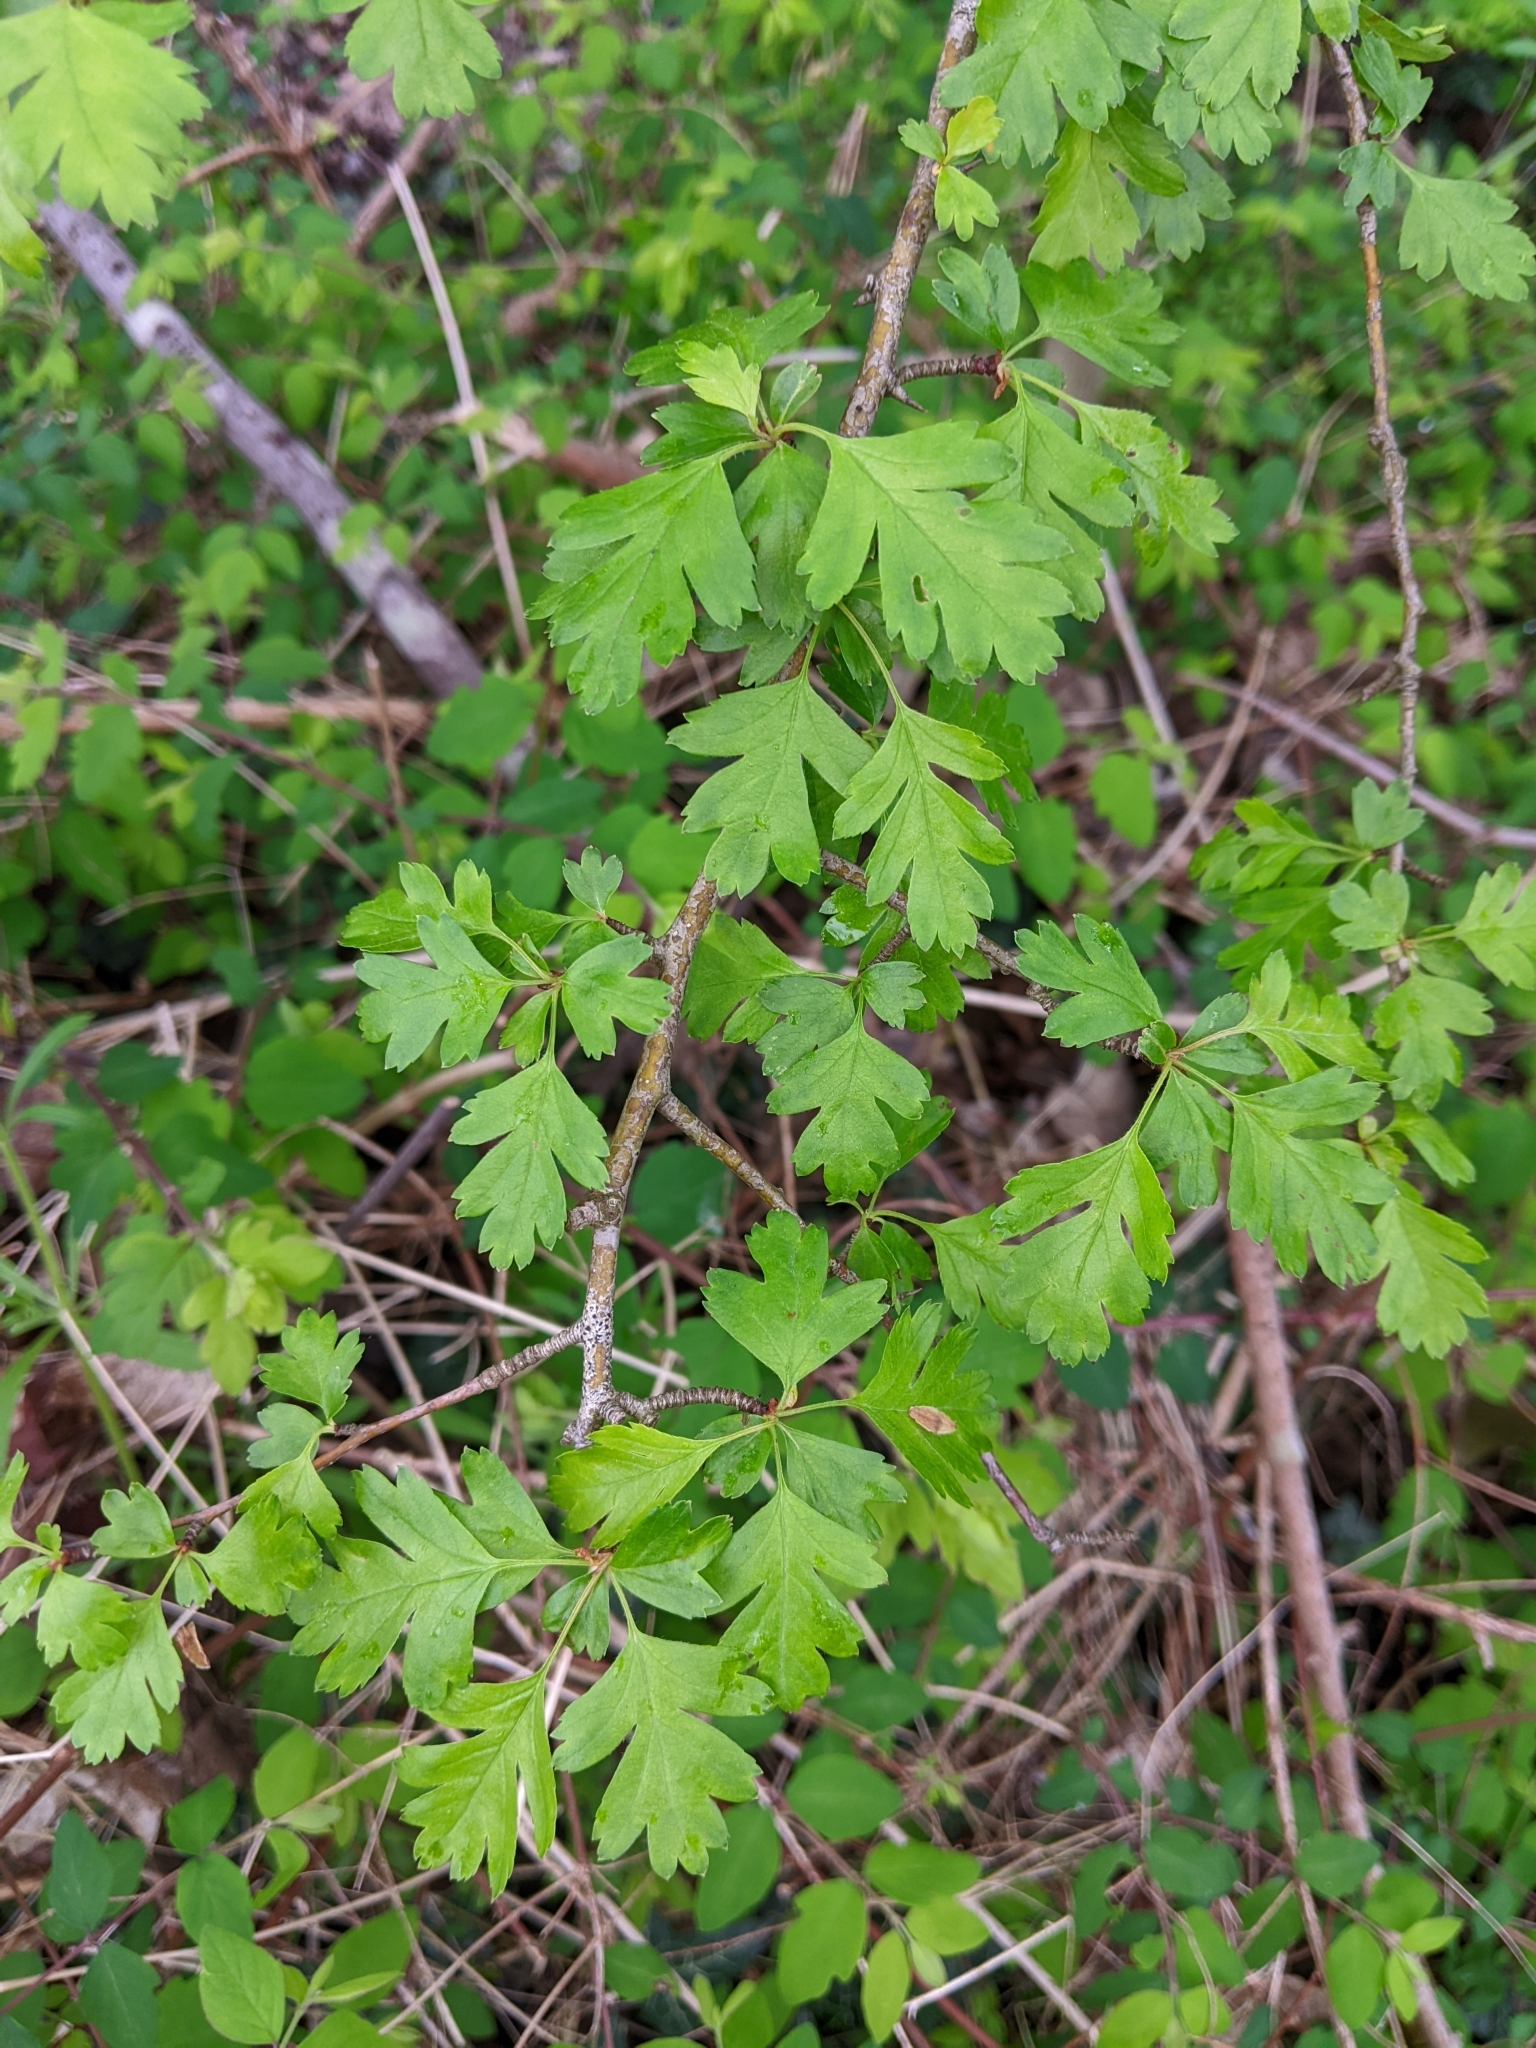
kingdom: Plantae
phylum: Tracheophyta
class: Magnoliopsida
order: Rosales
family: Rosaceae
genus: Crataegus
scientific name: Crataegus monogyna
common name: Hawthorn
